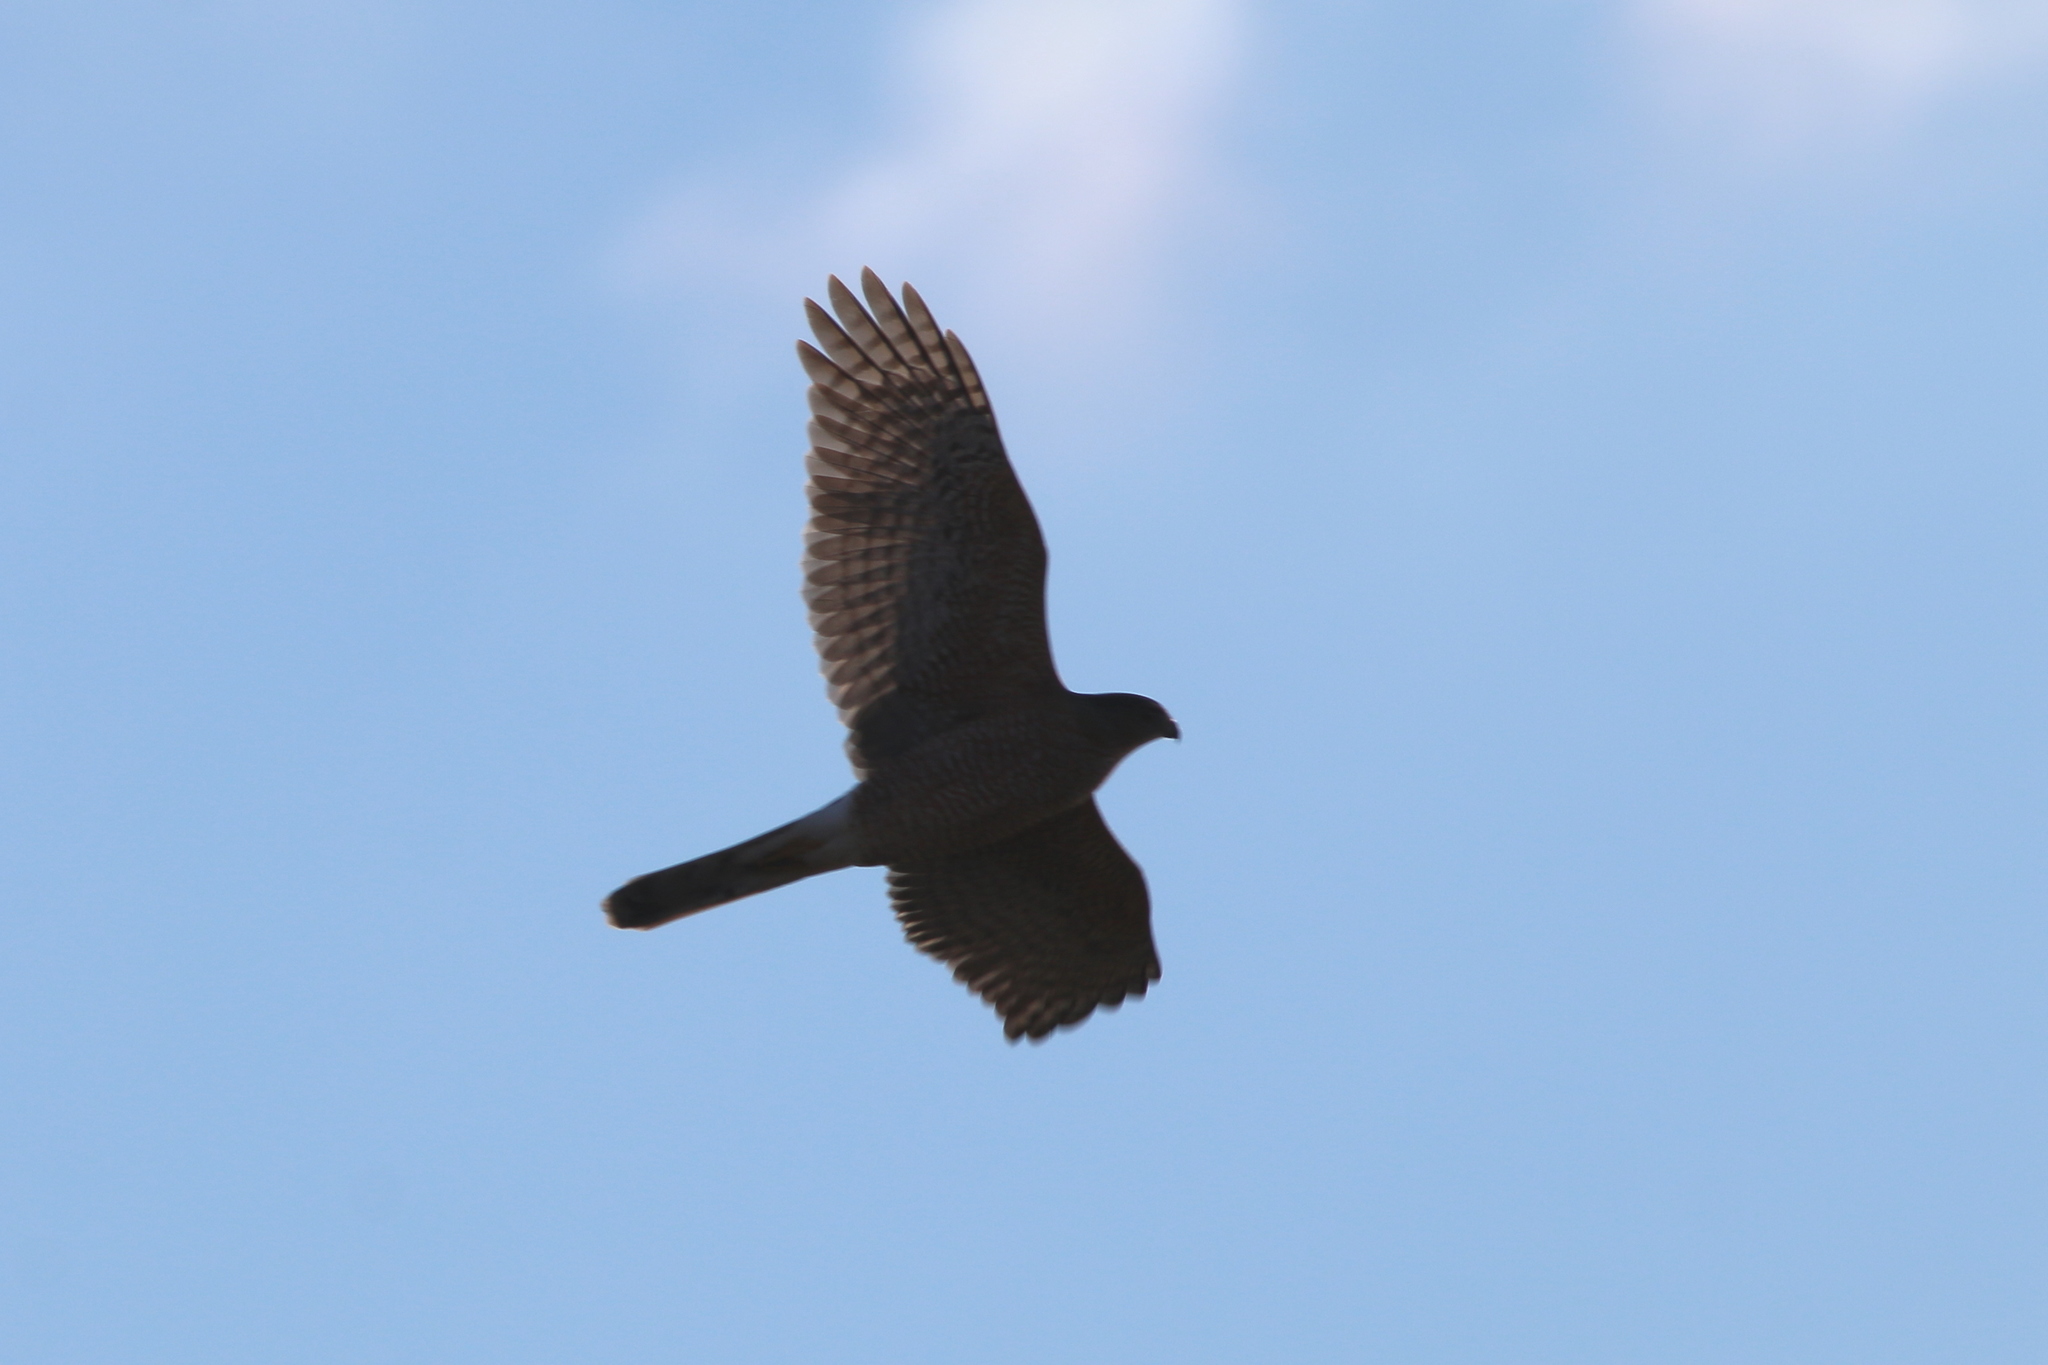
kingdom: Animalia
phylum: Chordata
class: Aves
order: Accipitriformes
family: Accipitridae
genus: Accipiter
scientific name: Accipiter cooperii
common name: Cooper's hawk
